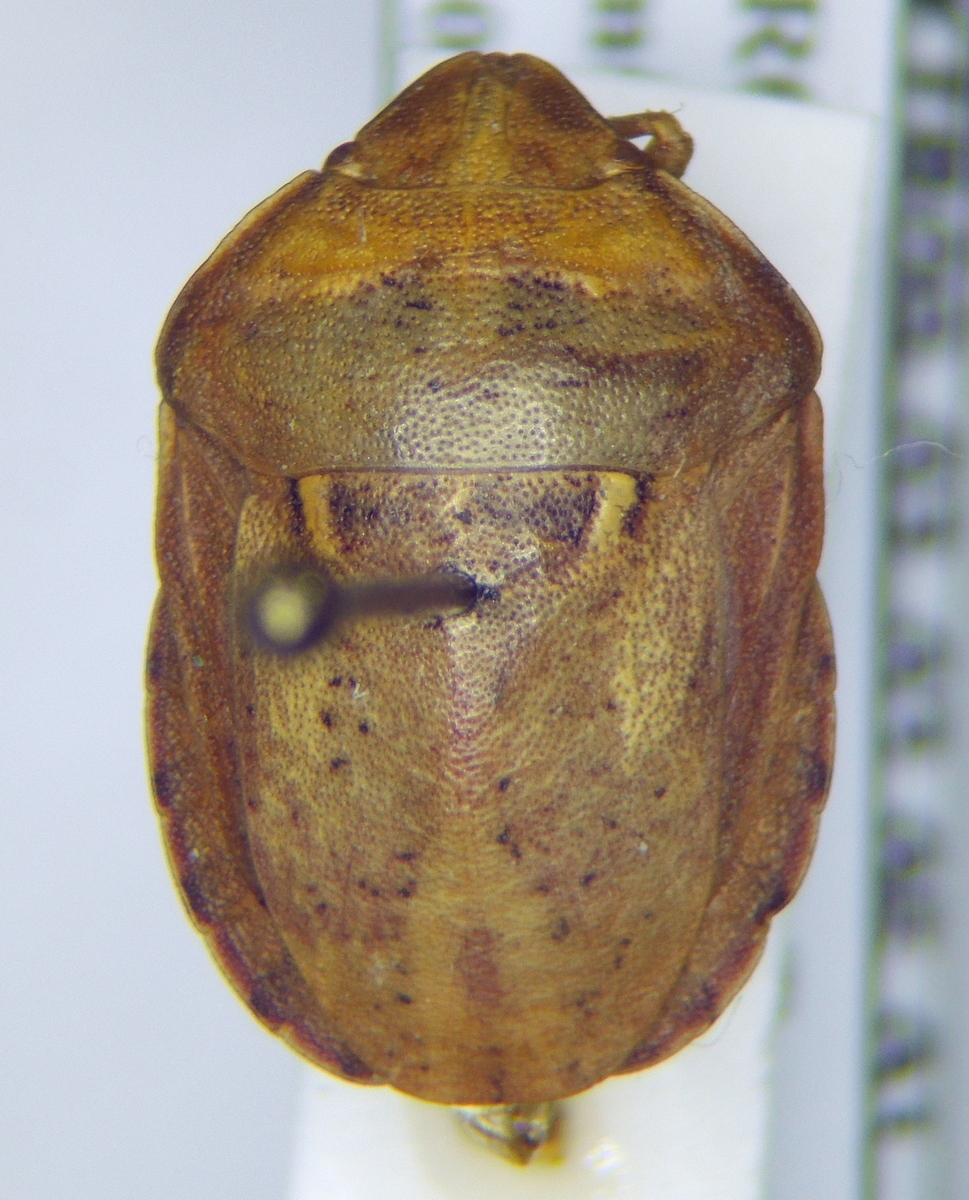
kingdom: Animalia
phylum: Arthropoda
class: Insecta
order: Hemiptera
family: Scutelleridae
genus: Eurygaster
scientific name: Eurygaster maura
